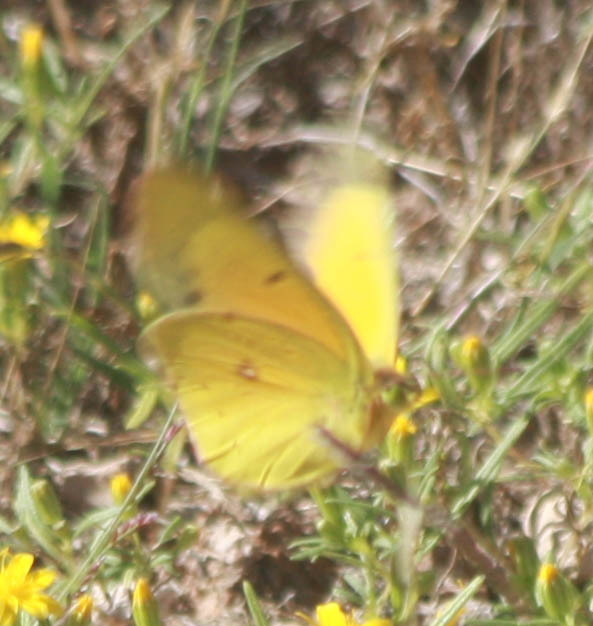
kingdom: Animalia
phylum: Arthropoda
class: Insecta
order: Lepidoptera
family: Pieridae
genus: Colias
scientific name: Colias eurytheme
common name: Alfalfa butterfly
